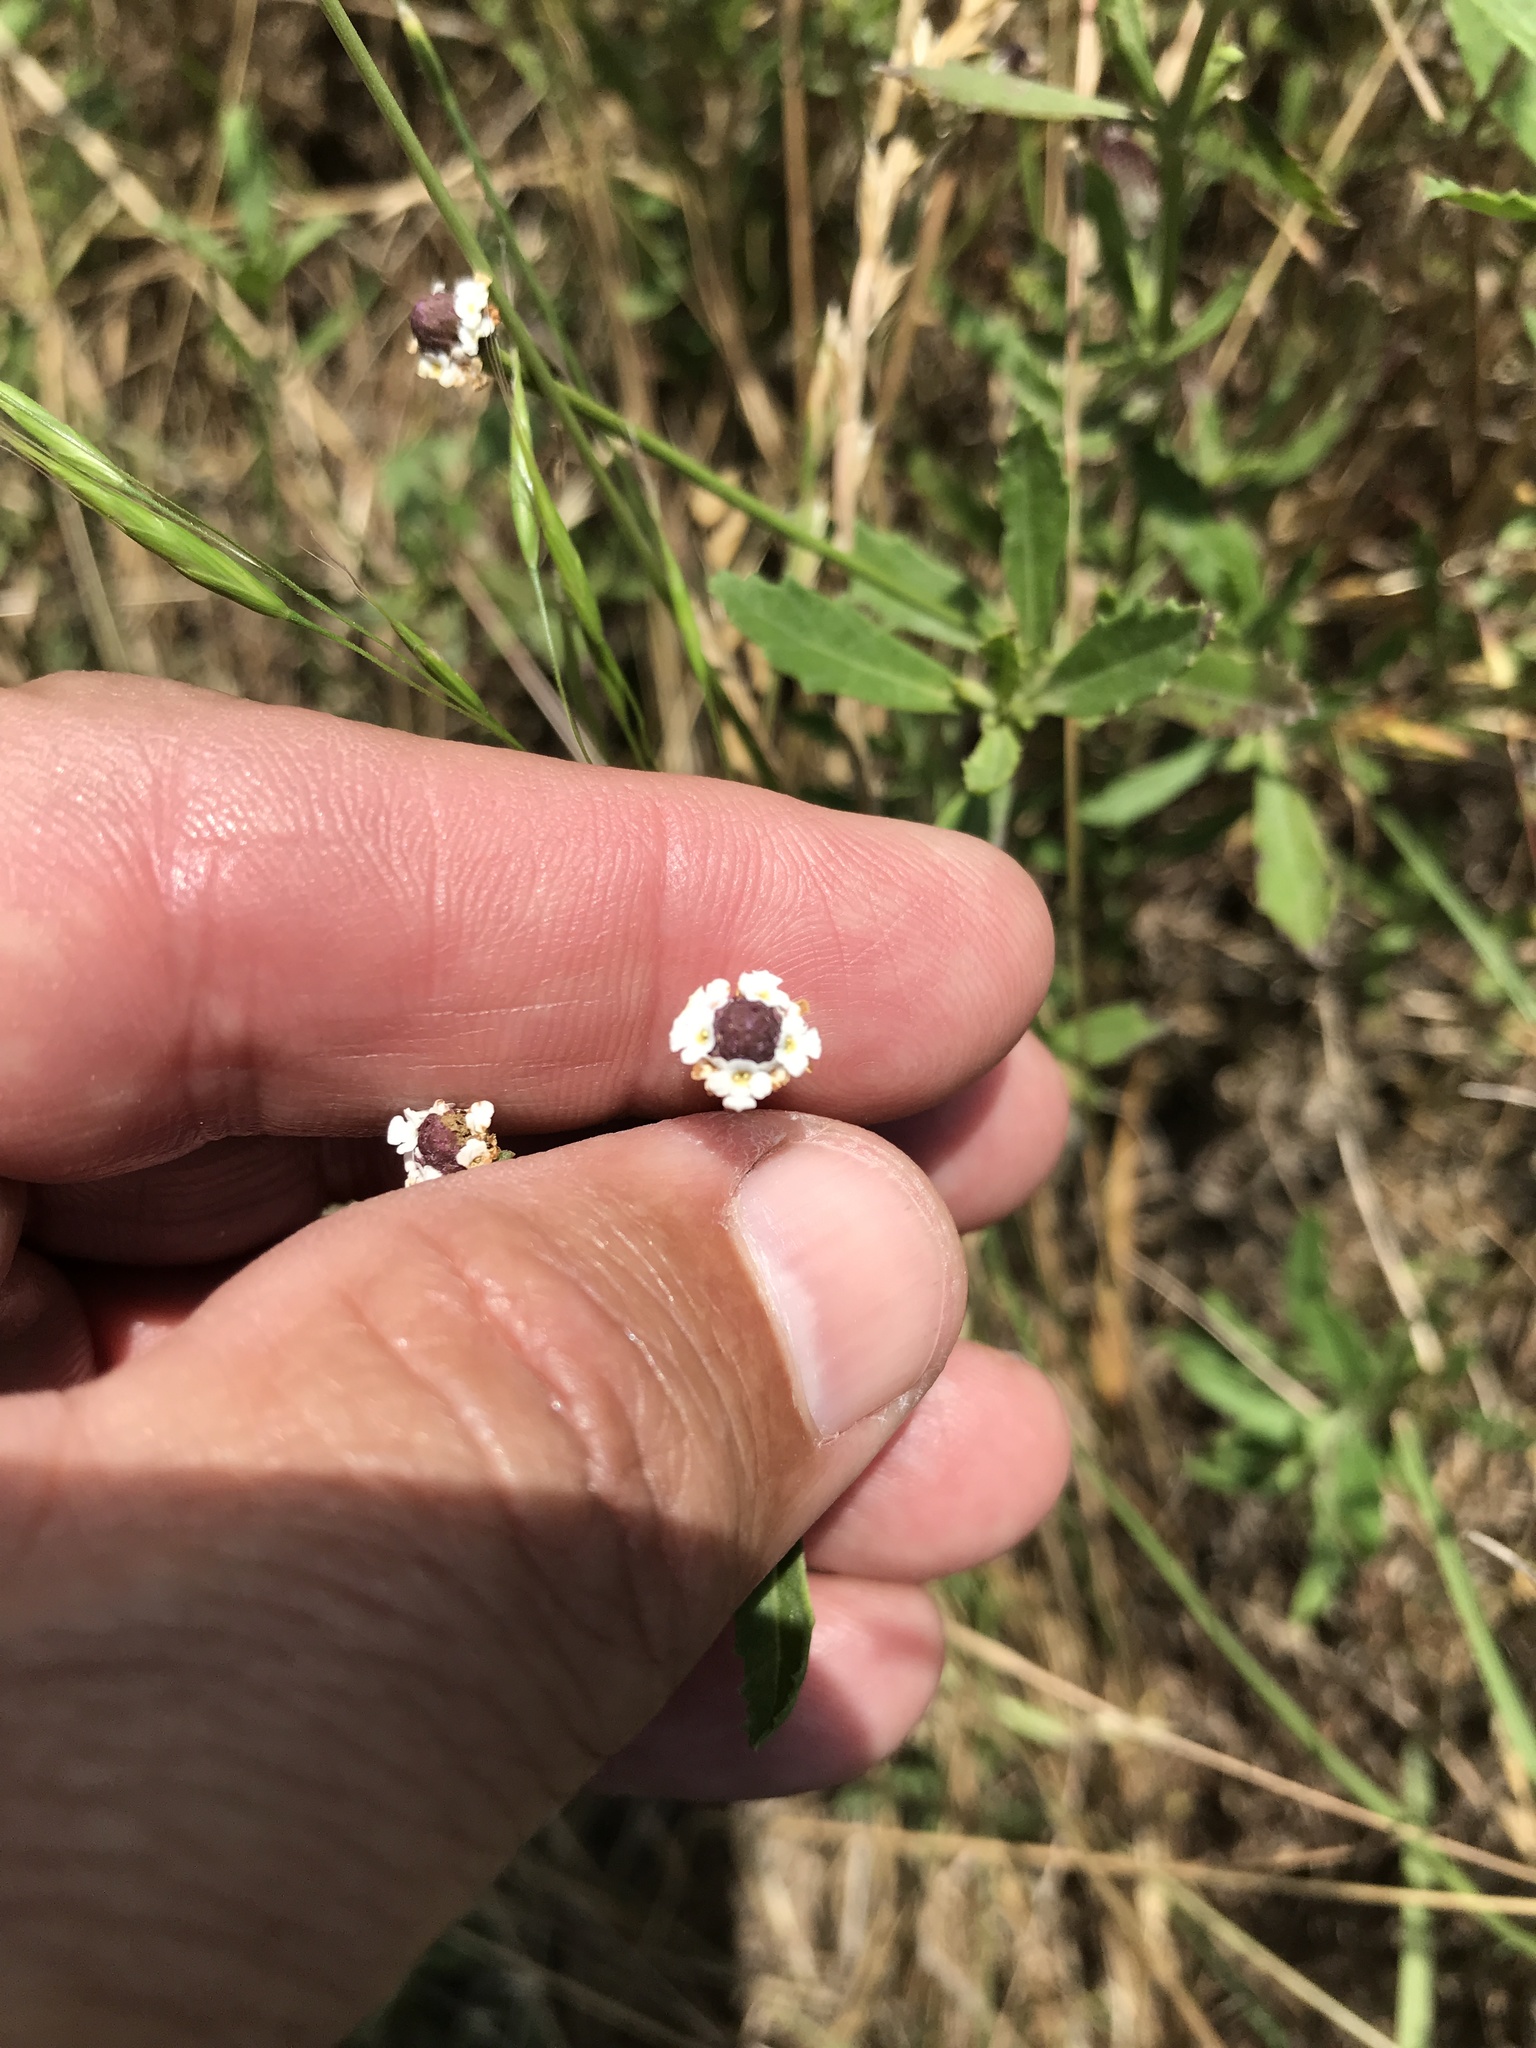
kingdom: Plantae
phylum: Tracheophyta
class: Magnoliopsida
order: Lamiales
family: Verbenaceae
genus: Phyla
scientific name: Phyla nodiflora
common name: Frogfruit
